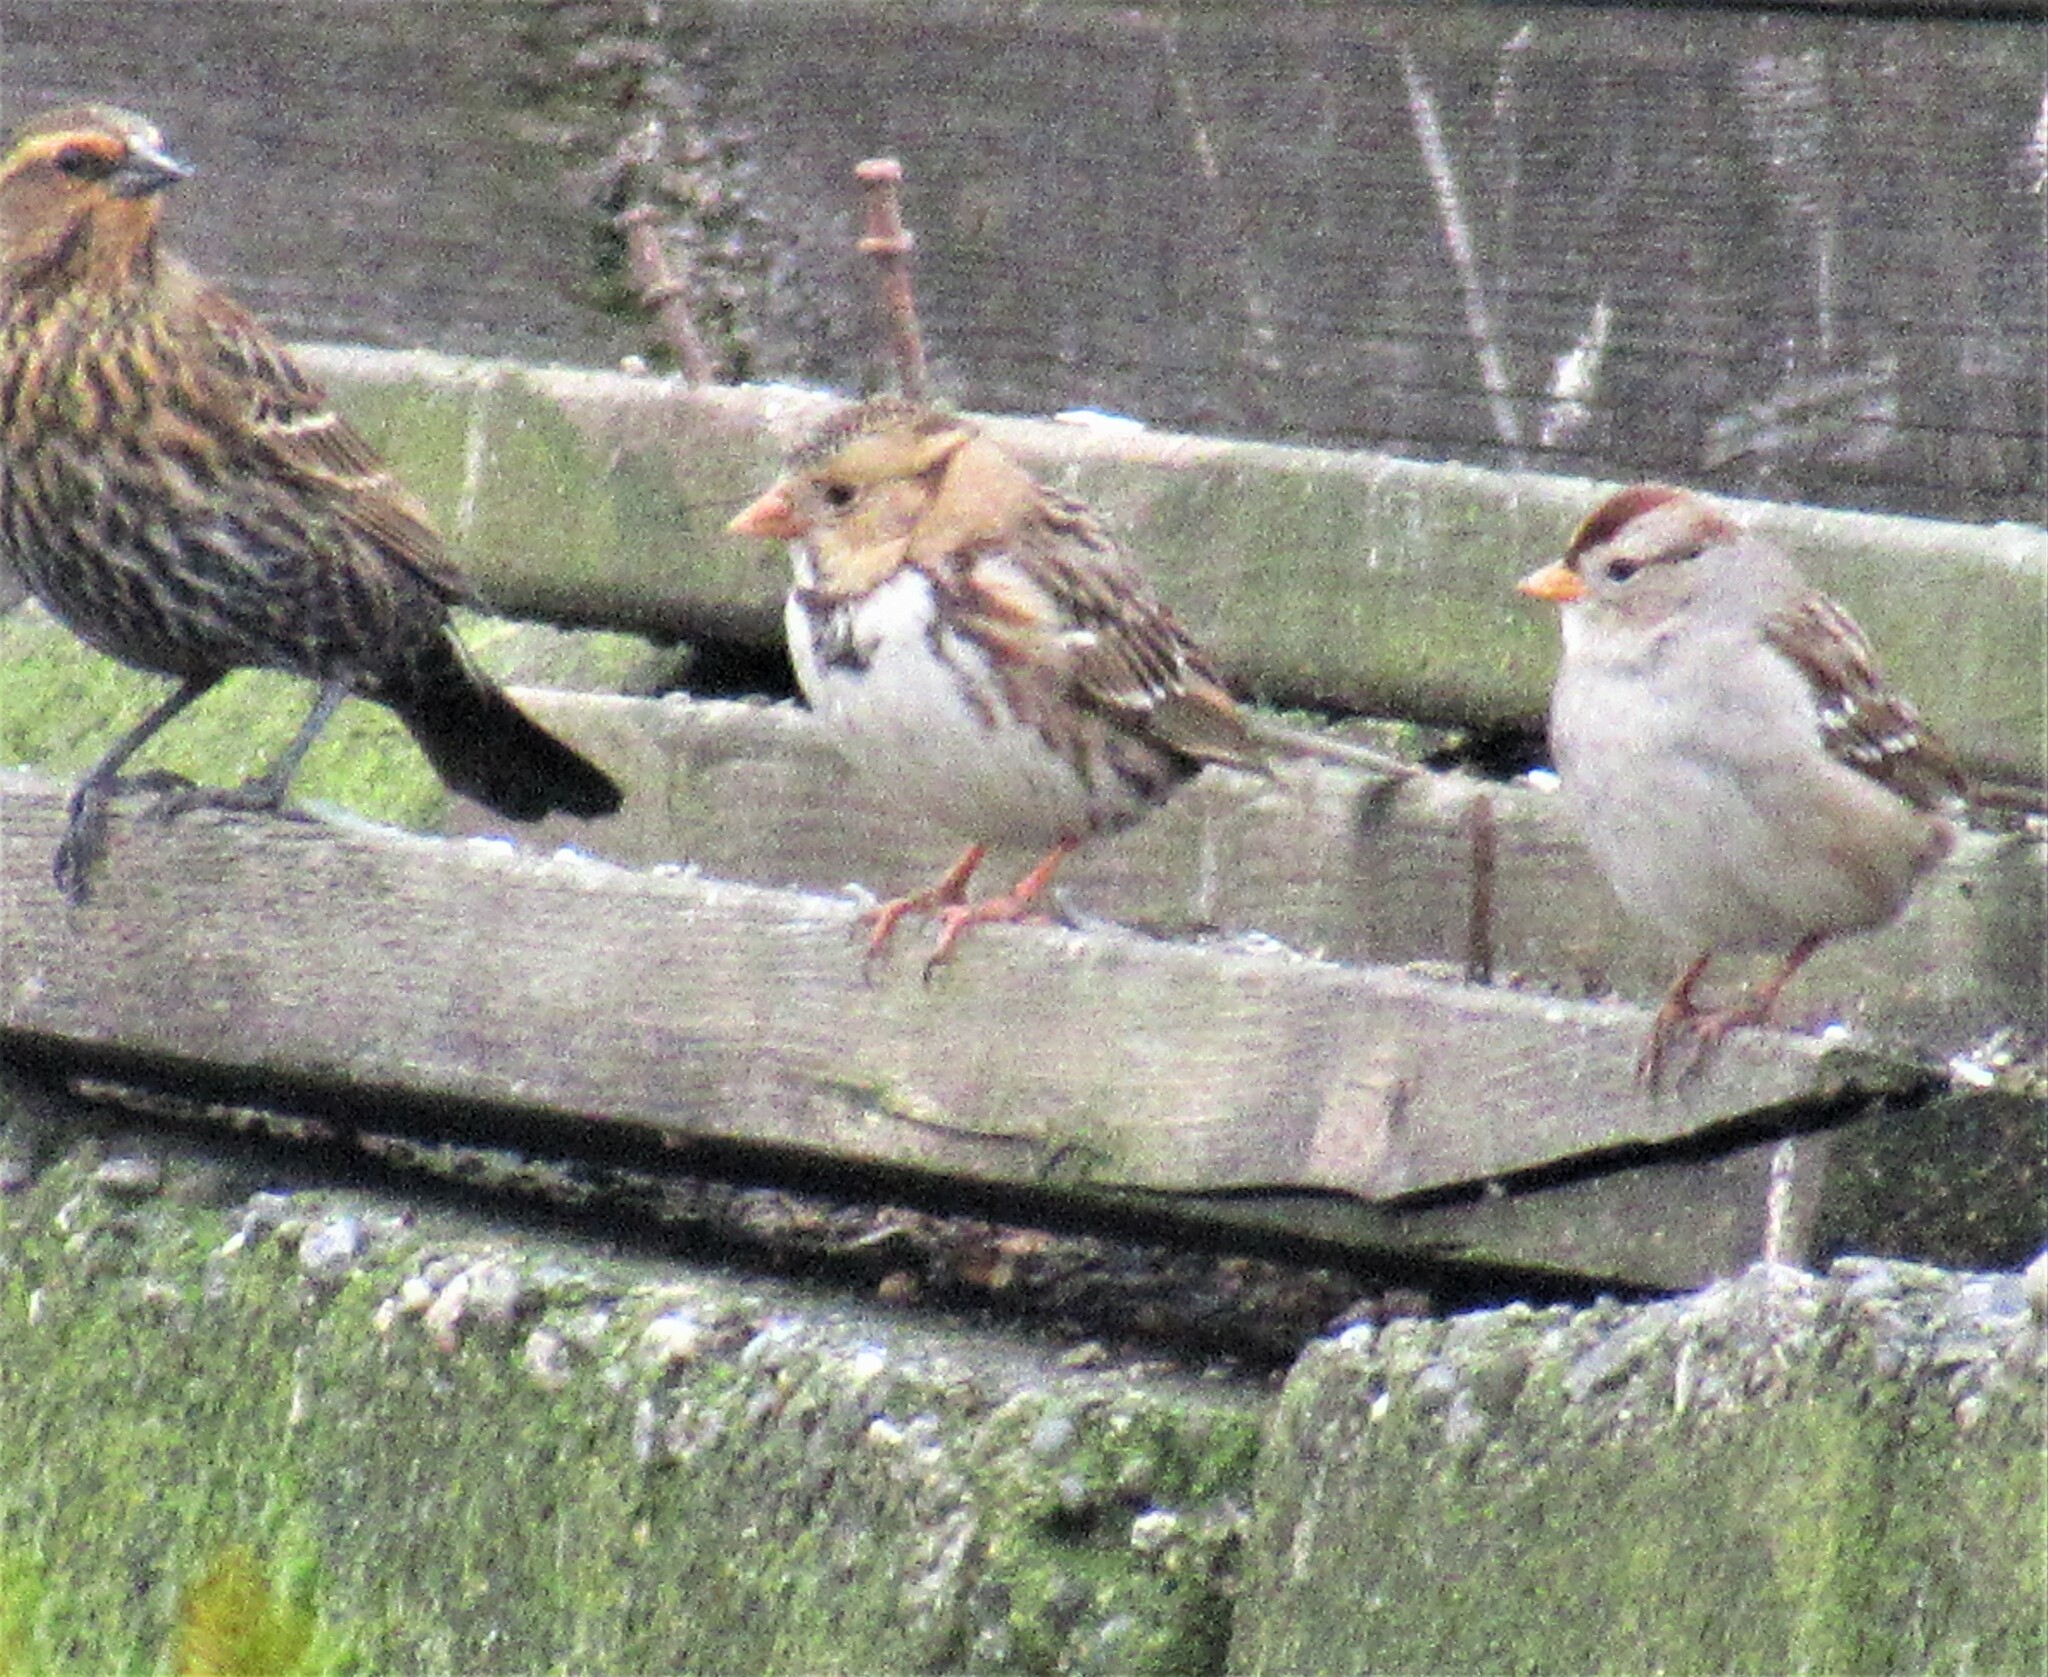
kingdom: Animalia
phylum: Chordata
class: Aves
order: Passeriformes
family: Passerellidae
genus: Zonotrichia
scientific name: Zonotrichia querula
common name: Harris's sparrow
